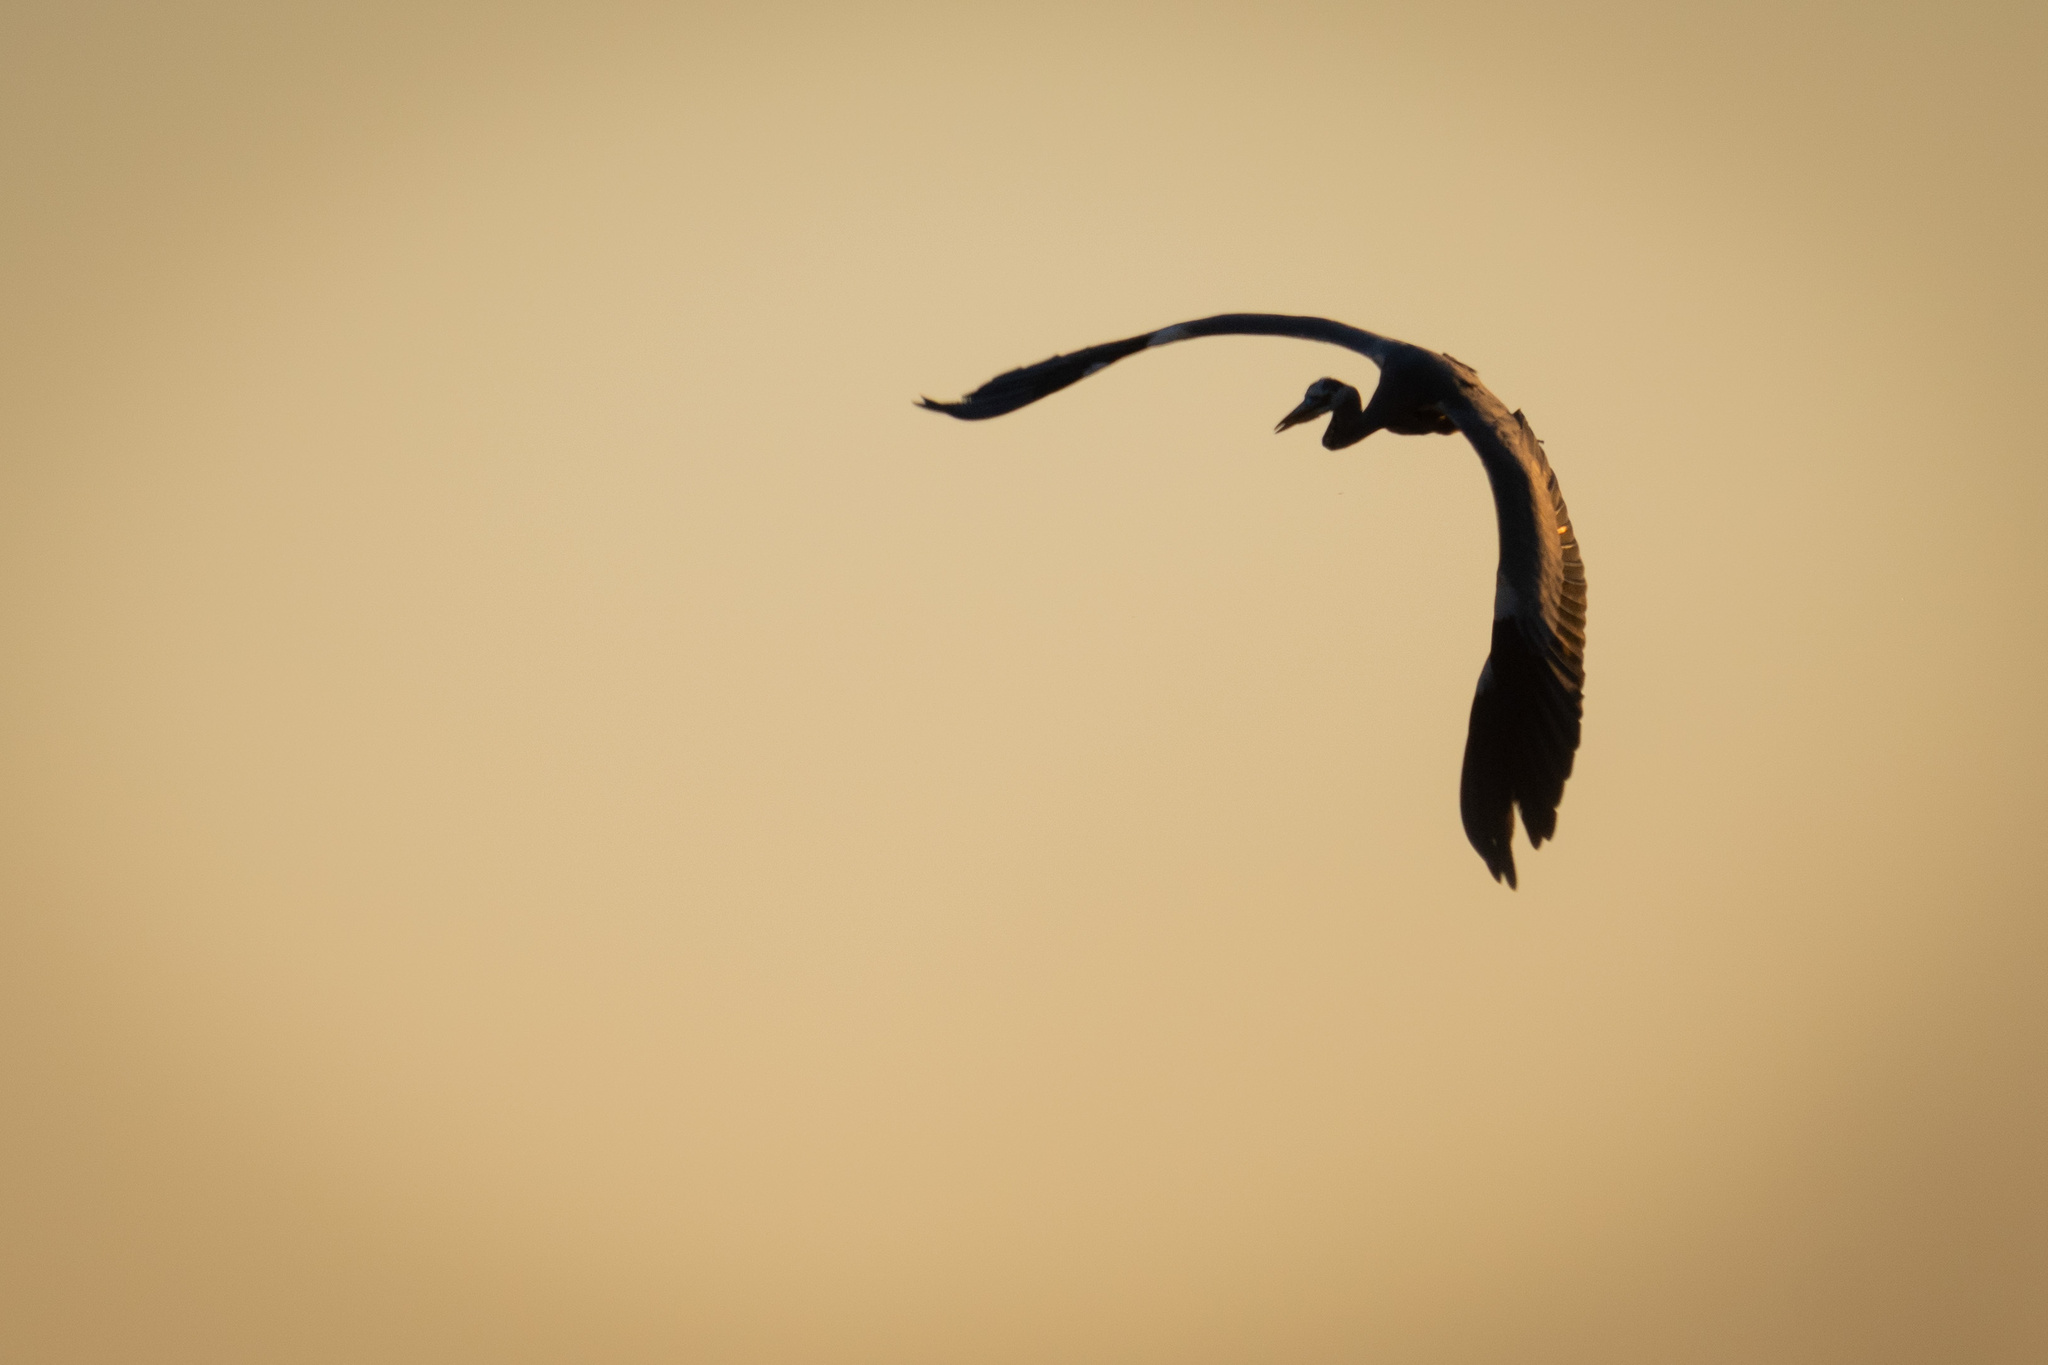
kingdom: Animalia
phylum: Chordata
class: Aves
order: Pelecaniformes
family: Ardeidae
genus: Ardea
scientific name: Ardea cinerea
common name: Grey heron
